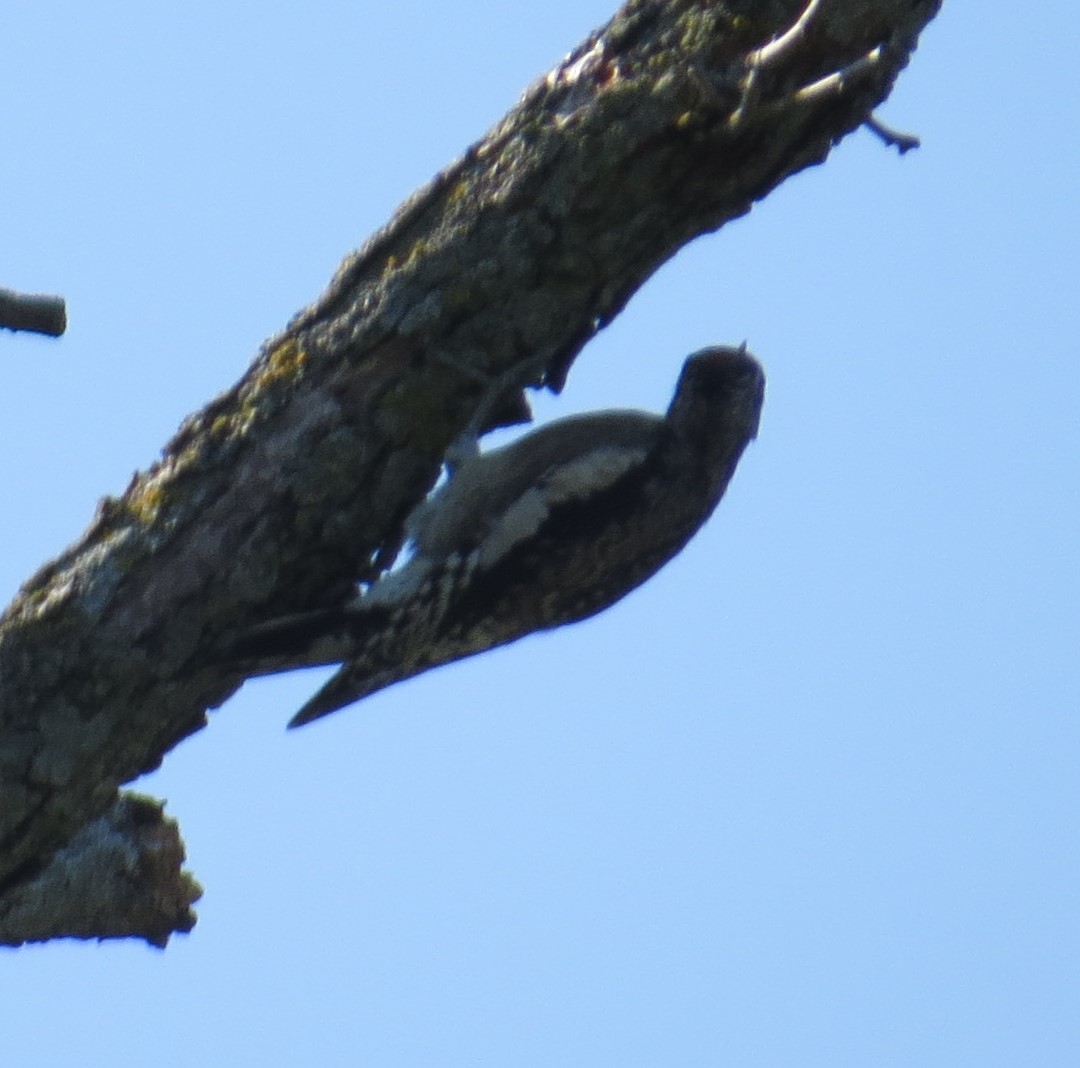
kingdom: Animalia
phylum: Chordata
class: Aves
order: Piciformes
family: Picidae
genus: Sphyrapicus
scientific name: Sphyrapicus varius
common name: Yellow-bellied sapsucker
